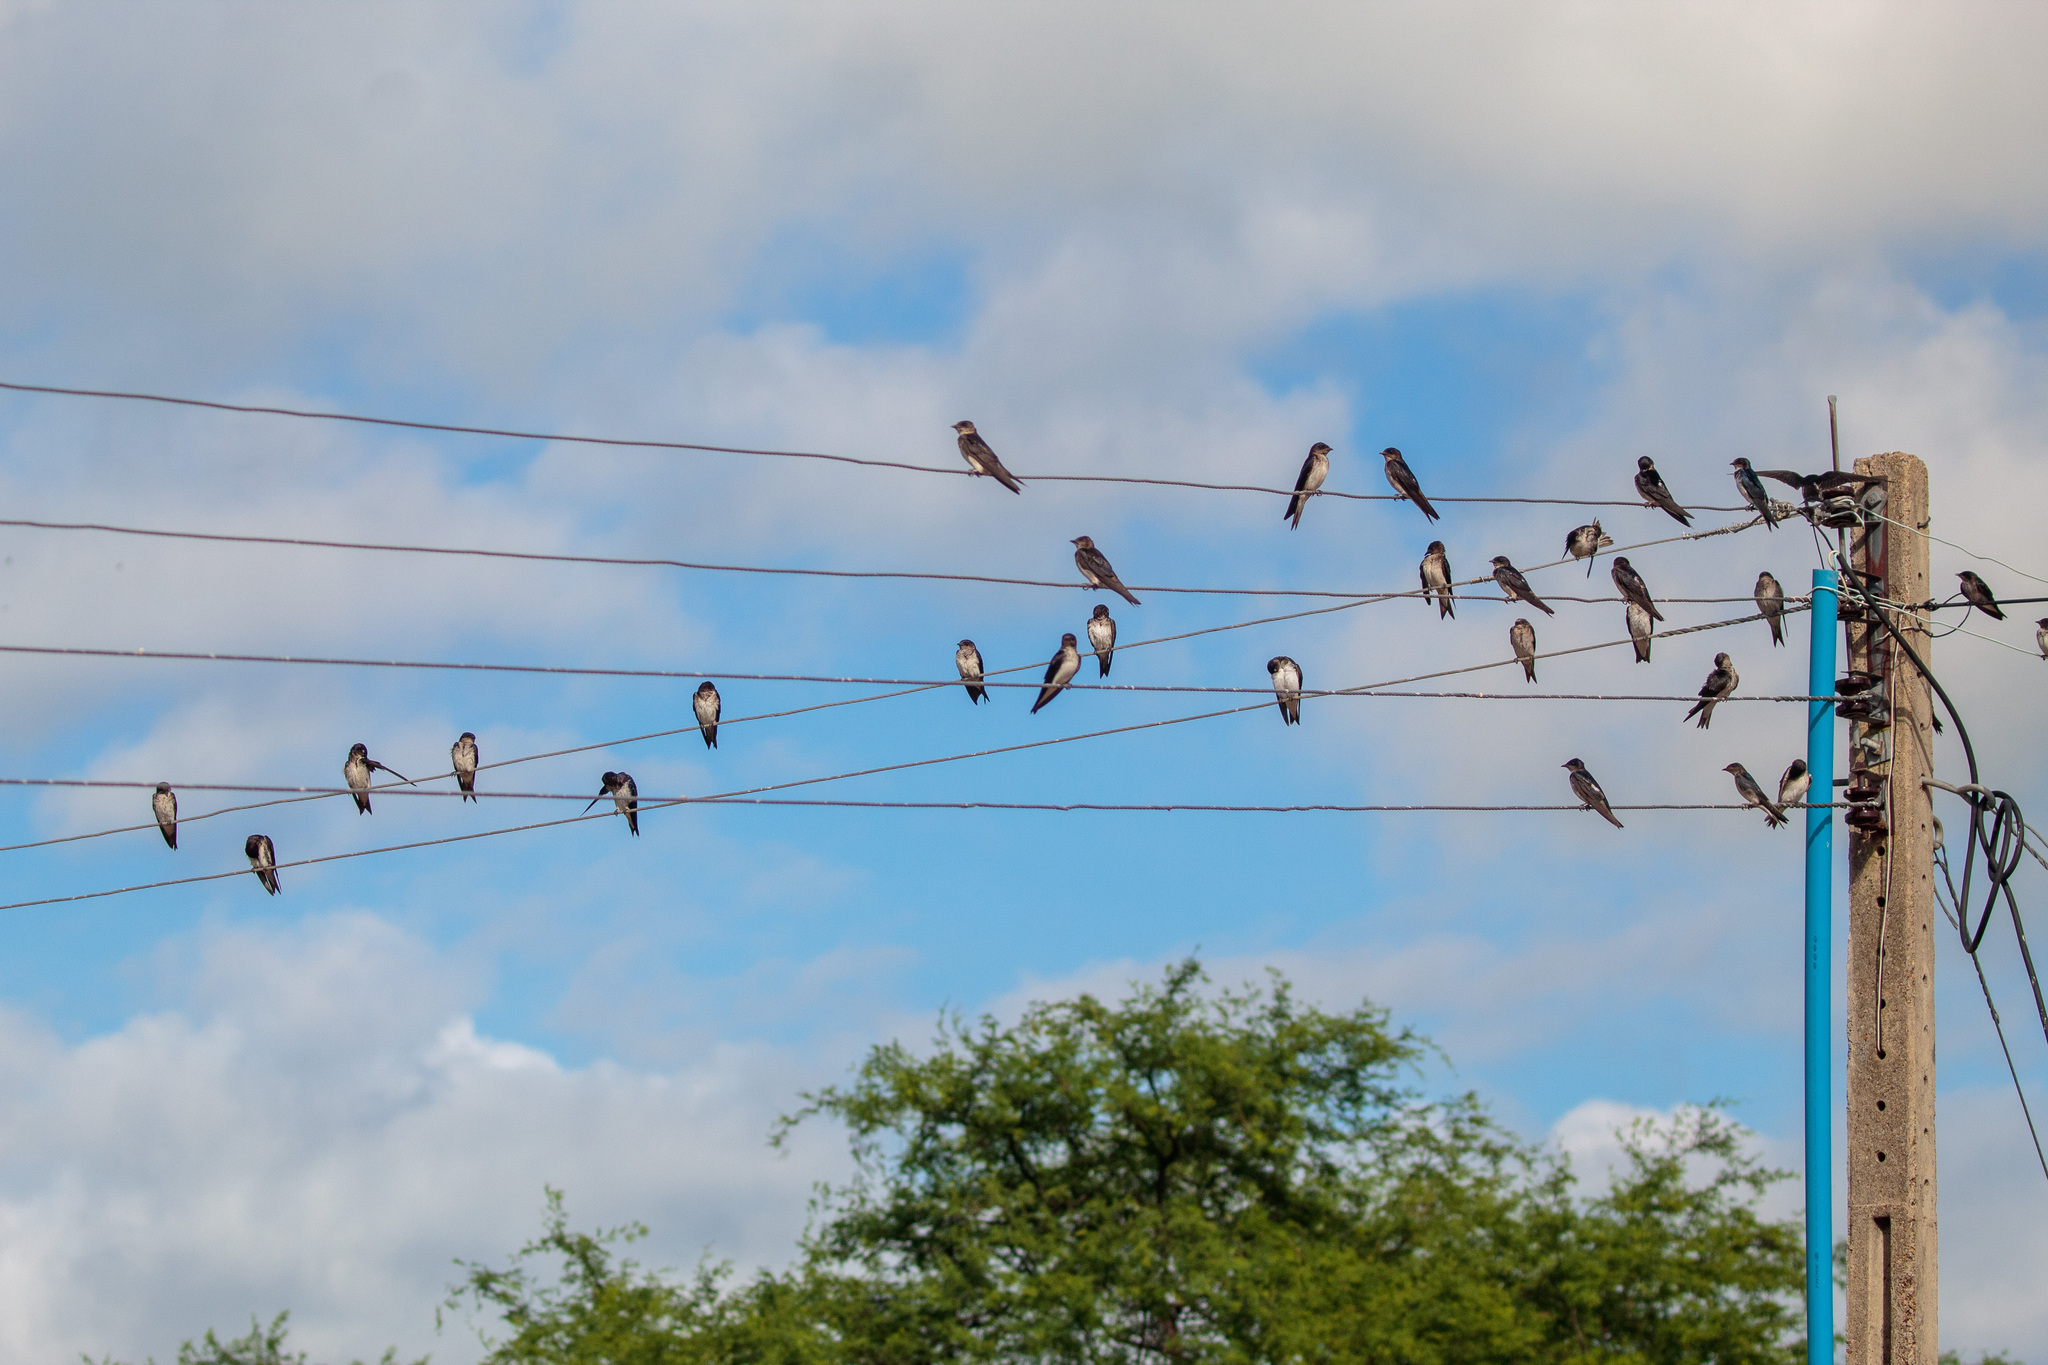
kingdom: Animalia
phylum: Chordata
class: Aves
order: Passeriformes
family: Hirundinidae
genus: Progne
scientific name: Progne chalybea
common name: Grey-breasted martin
